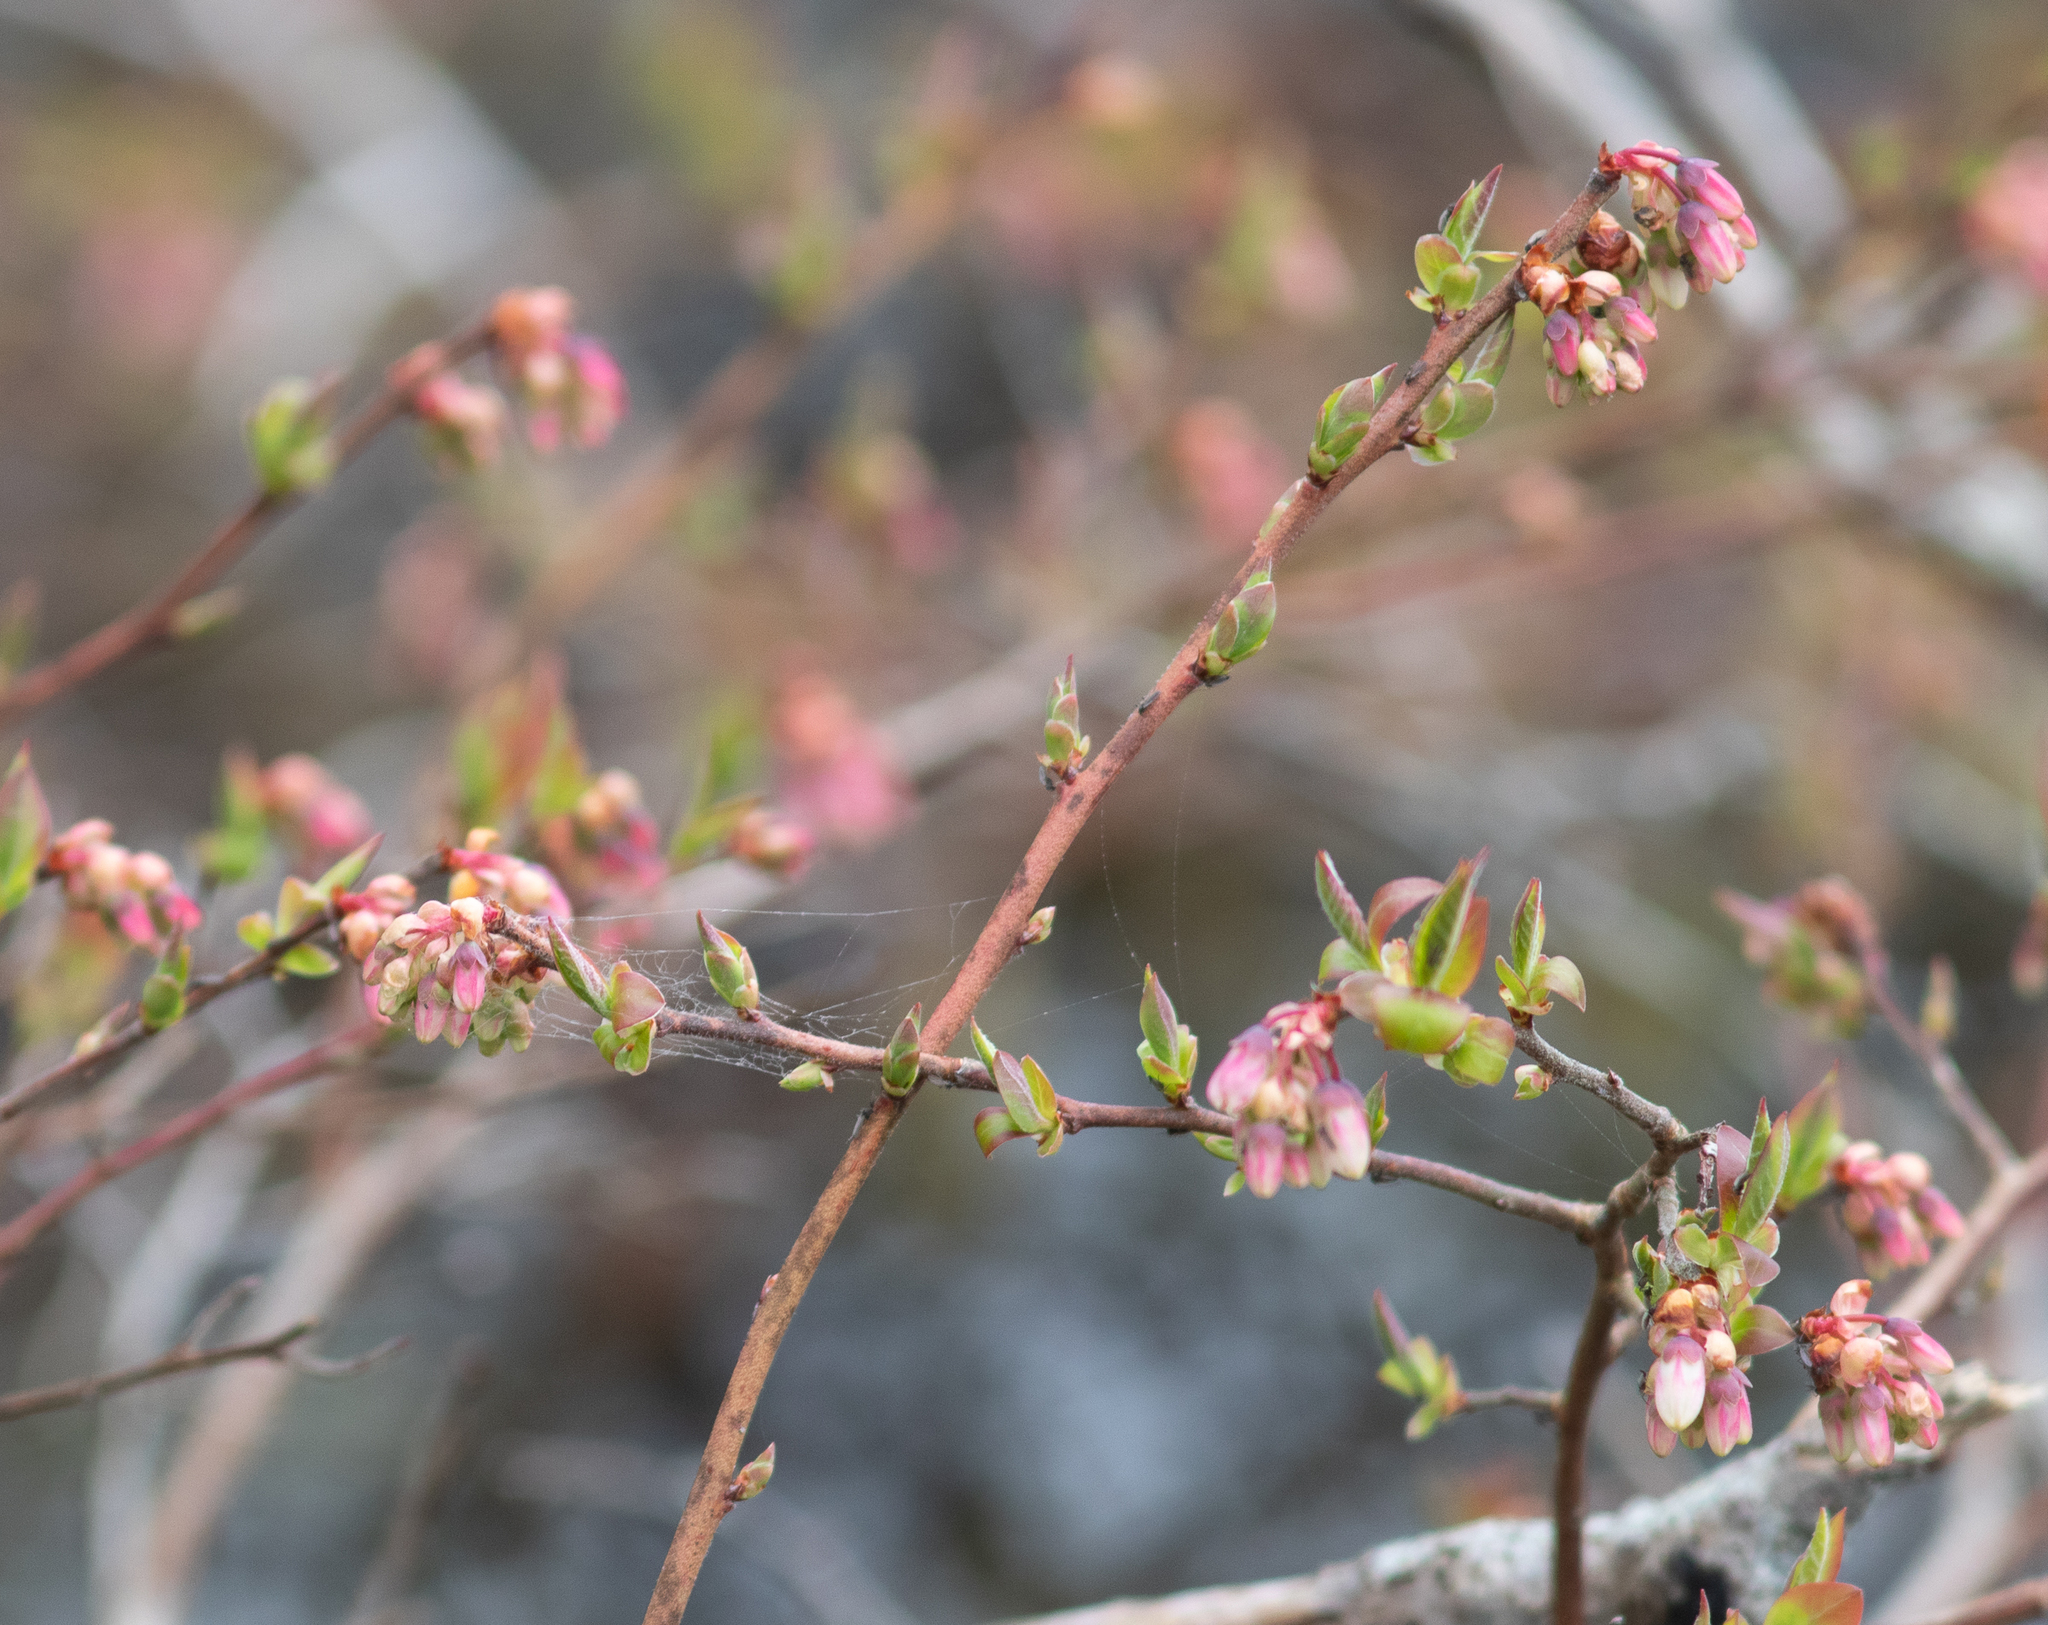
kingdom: Plantae
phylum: Tracheophyta
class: Magnoliopsida
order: Ericales
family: Ericaceae
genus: Vaccinium
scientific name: Vaccinium corymbosum
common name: Blueberry
